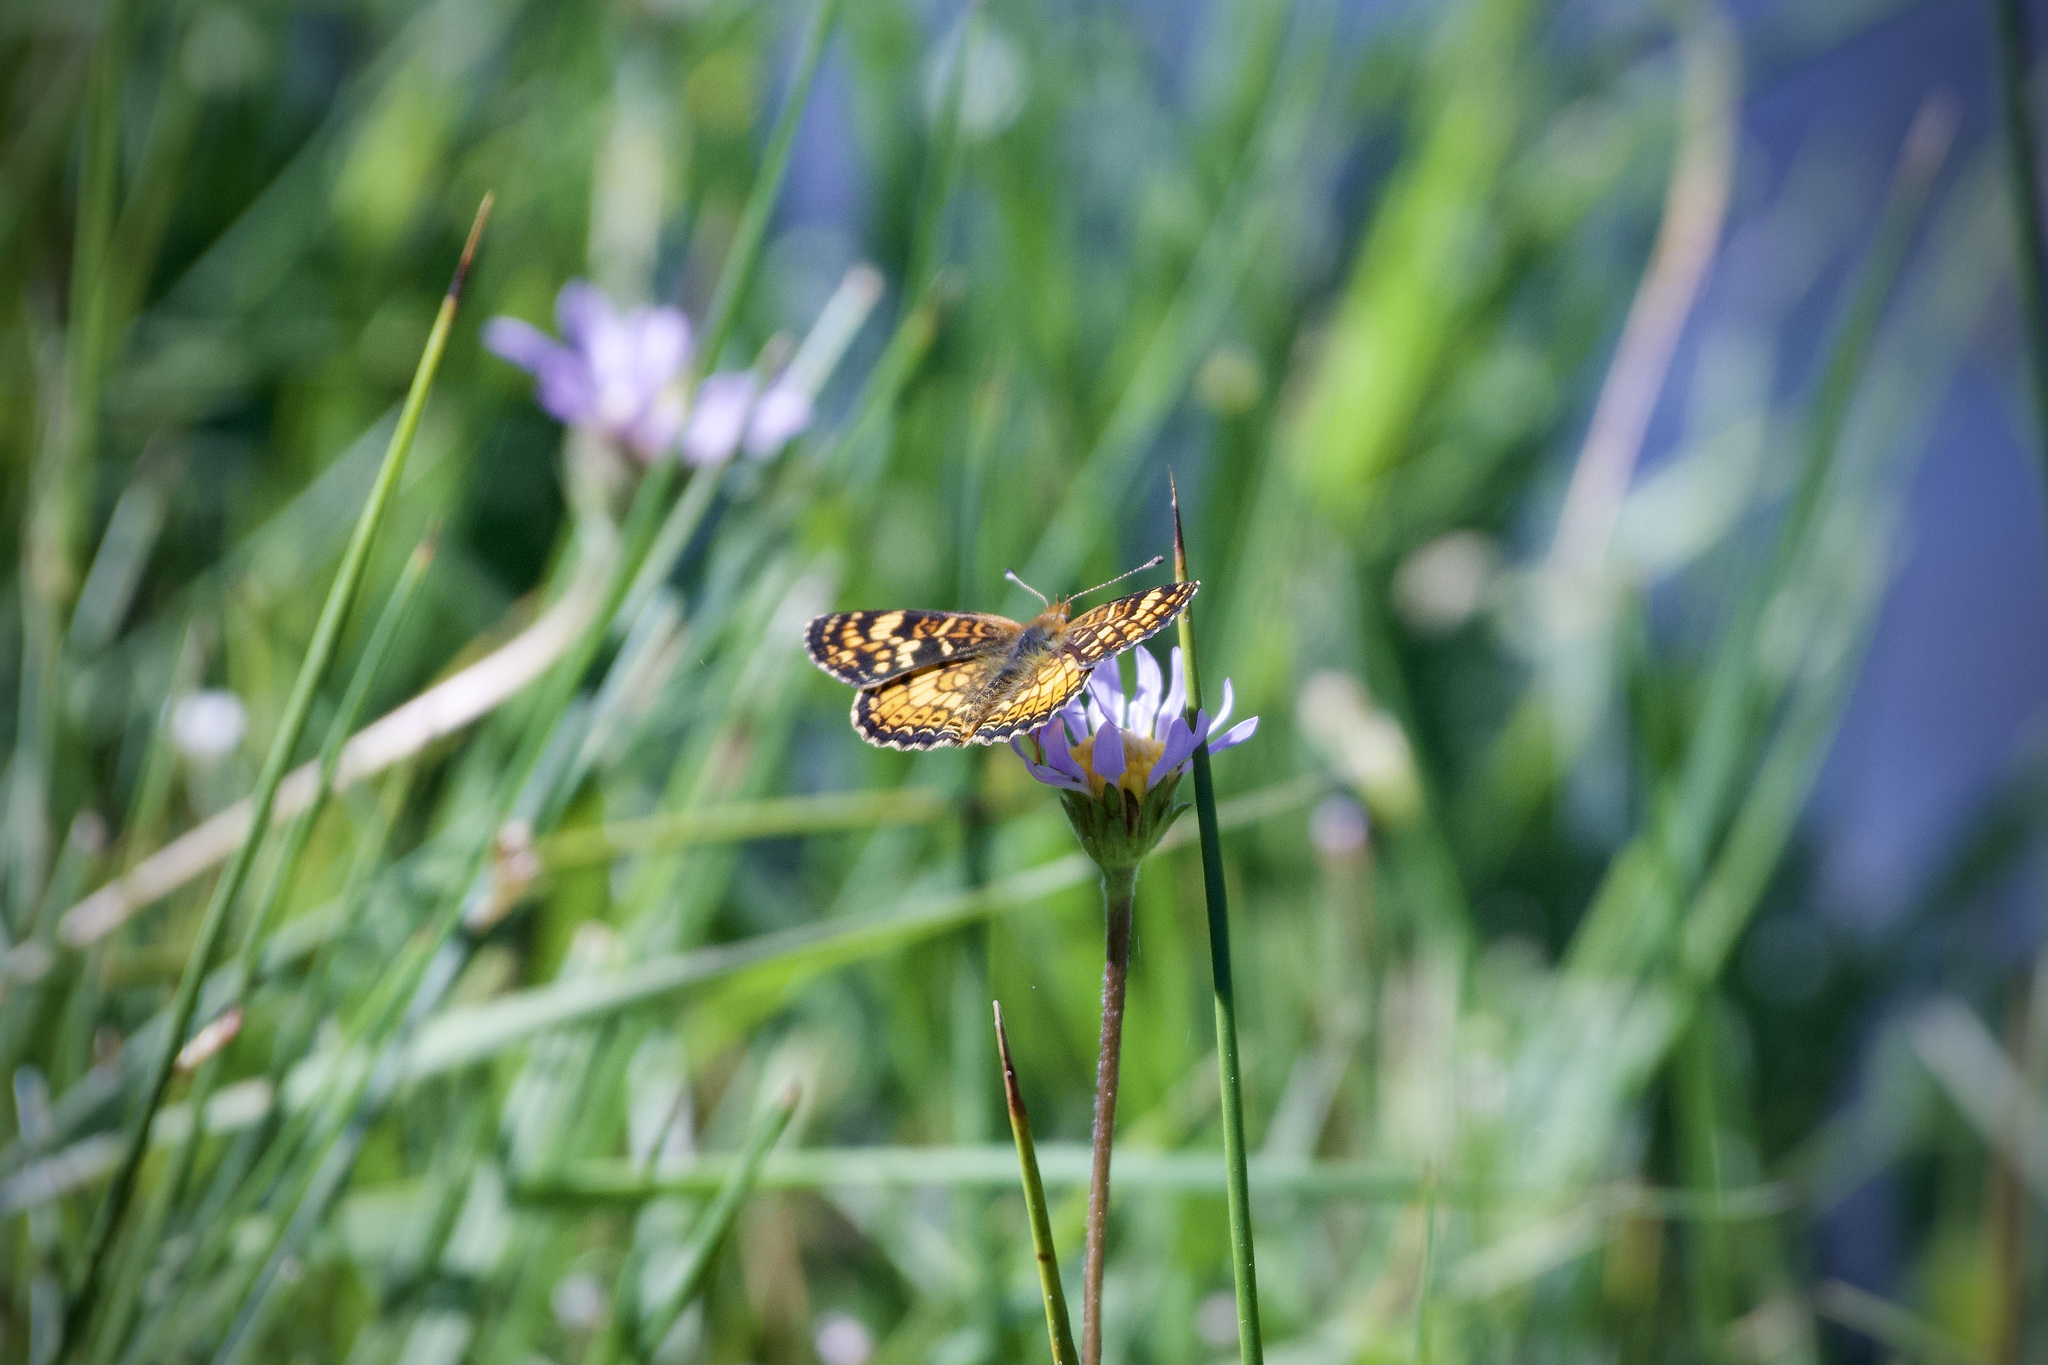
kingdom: Animalia
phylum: Arthropoda
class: Insecta
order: Lepidoptera
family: Nymphalidae
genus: Phyciodes
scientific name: Phyciodes tharos
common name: Pearl crescent
